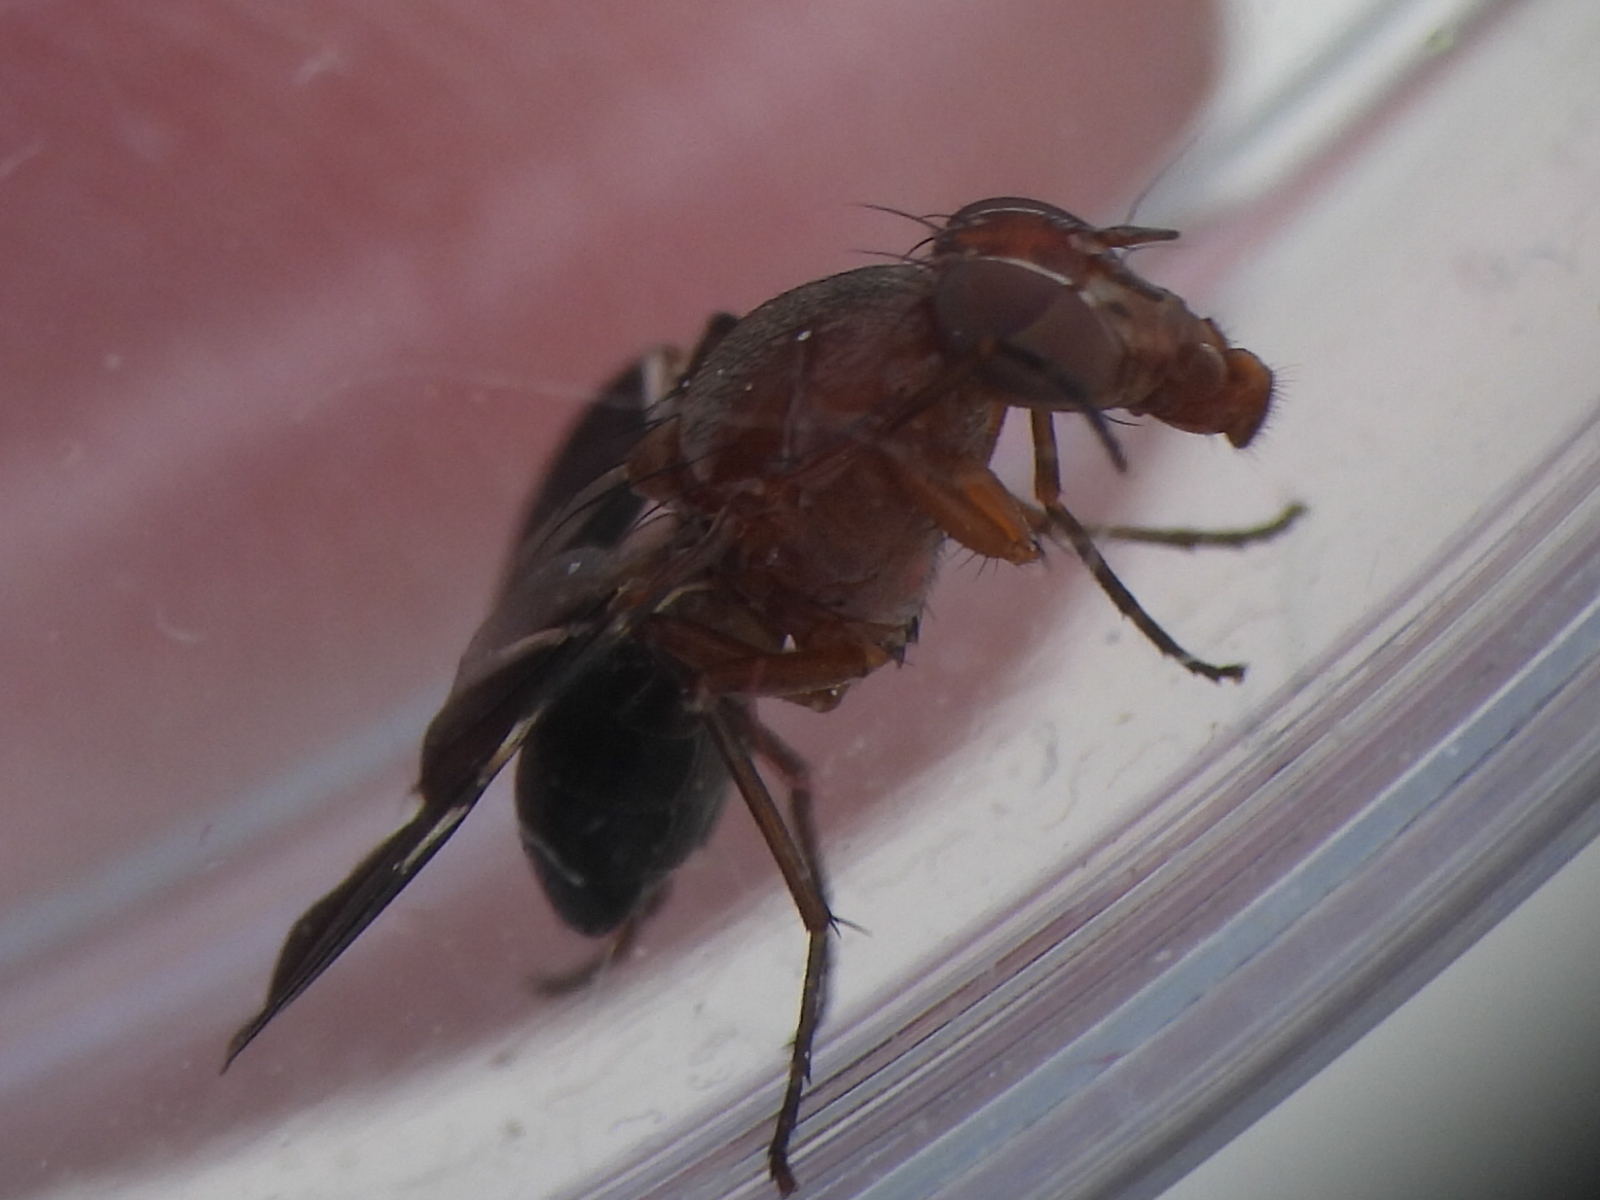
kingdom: Animalia
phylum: Arthropoda
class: Insecta
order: Diptera
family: Ulidiidae
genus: Delphinia
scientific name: Delphinia picta
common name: Common picture-winged fly
